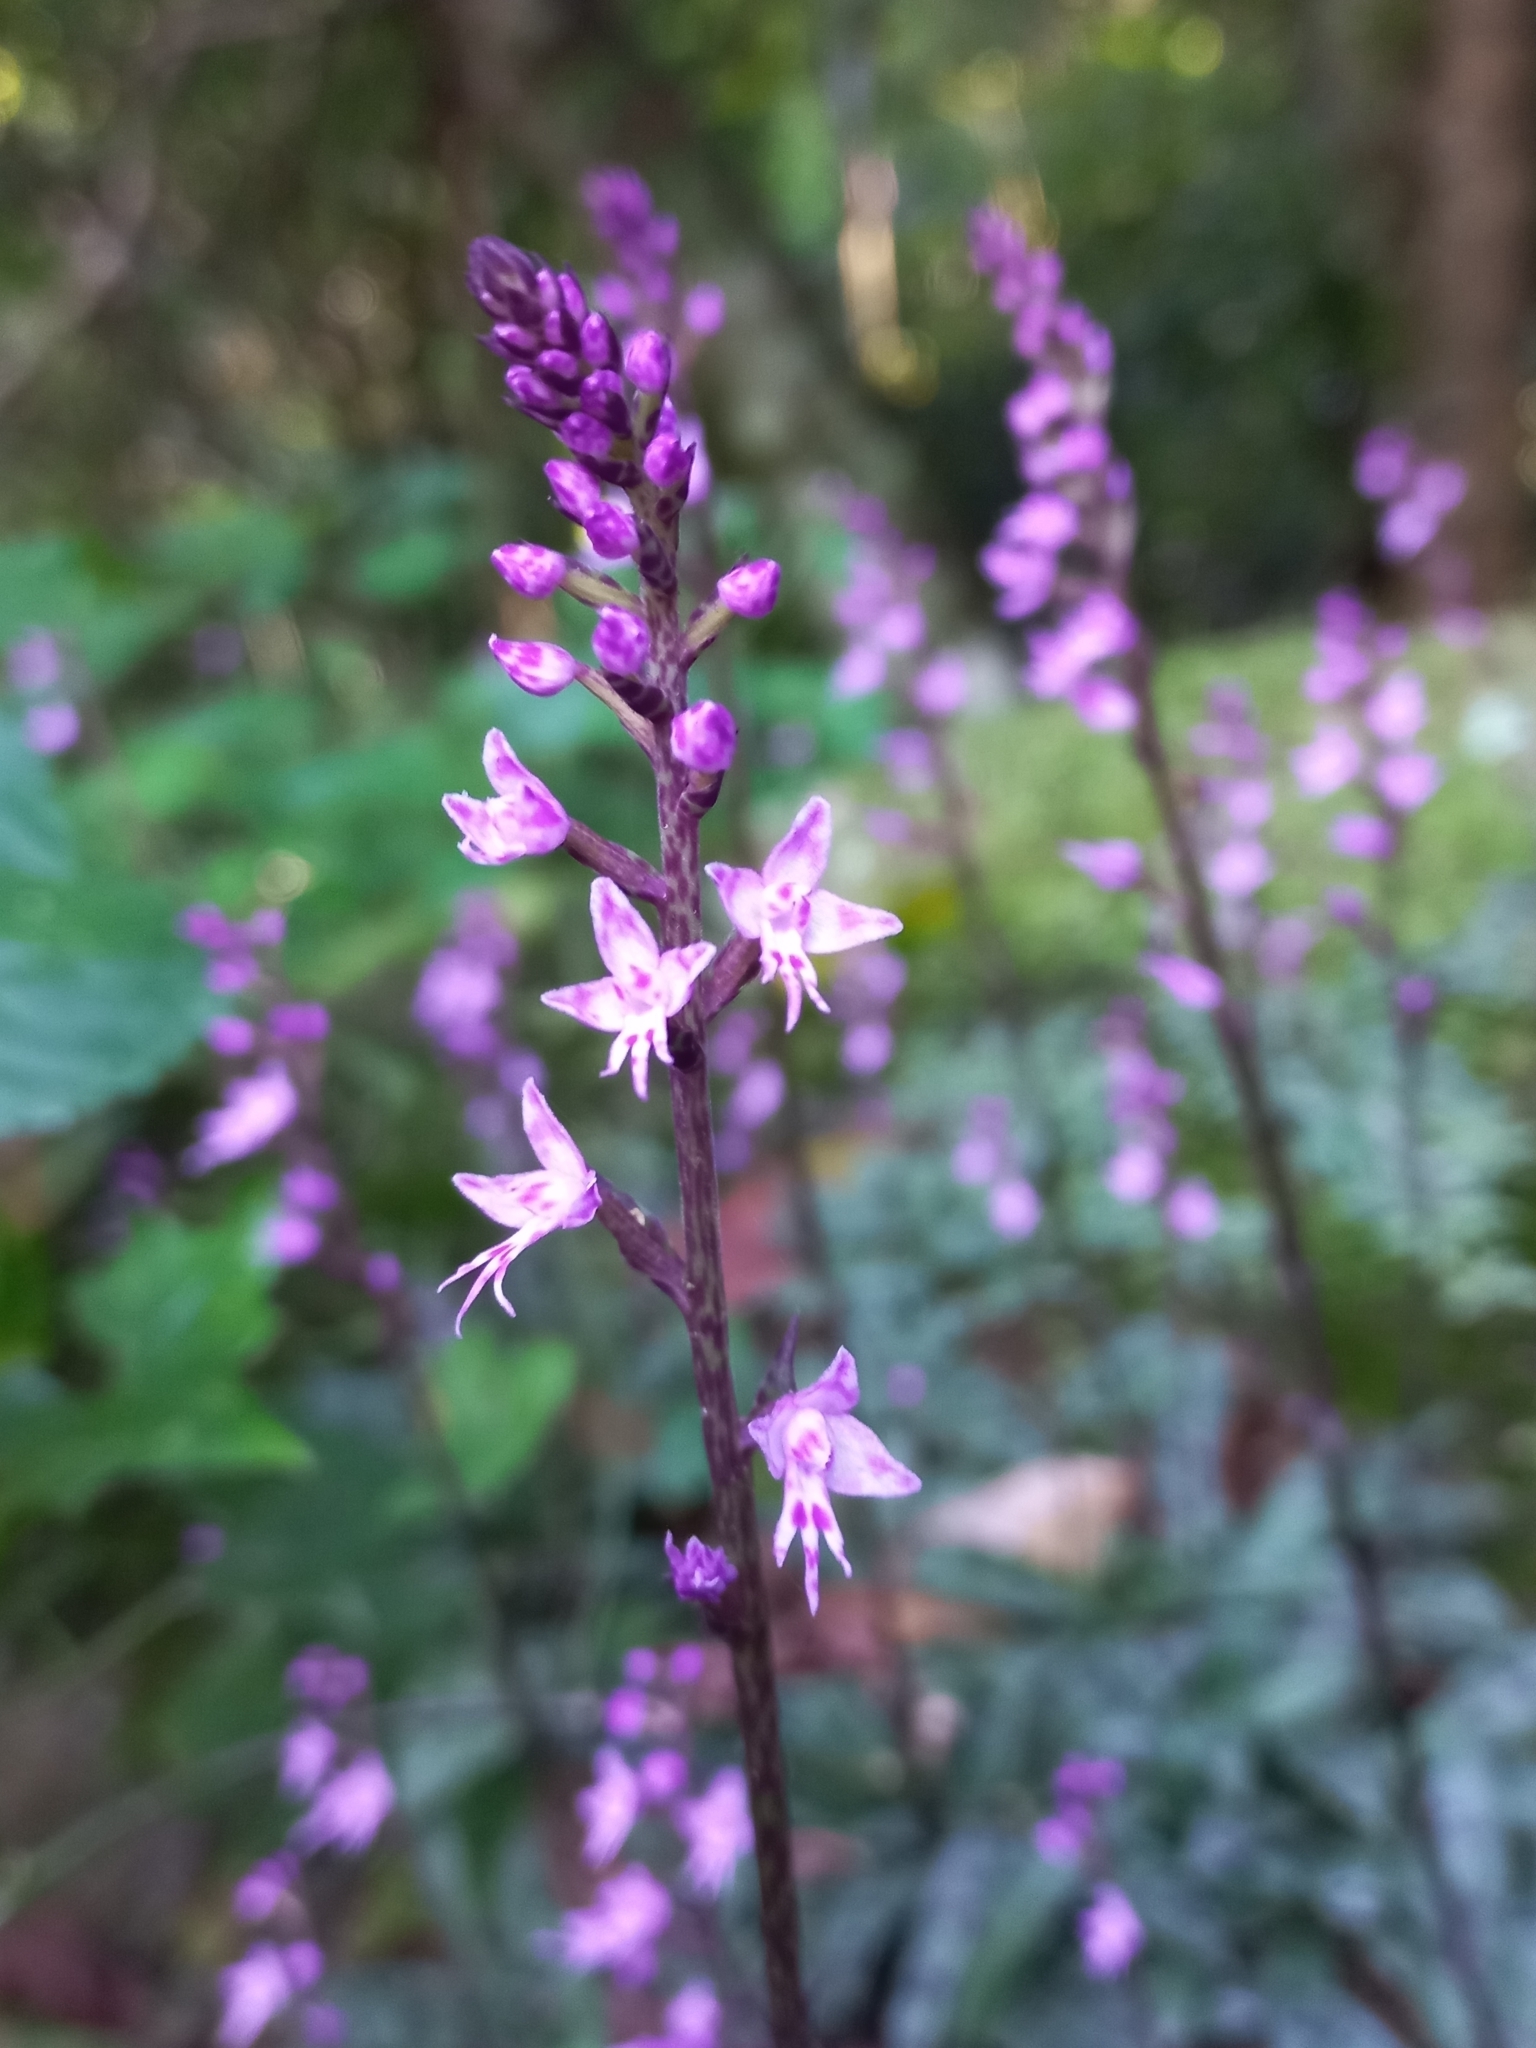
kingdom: Plantae
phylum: Tracheophyta
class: Liliopsida
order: Asparagales
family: Orchidaceae
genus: Stenoglottis
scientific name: Stenoglottis fimbriata
